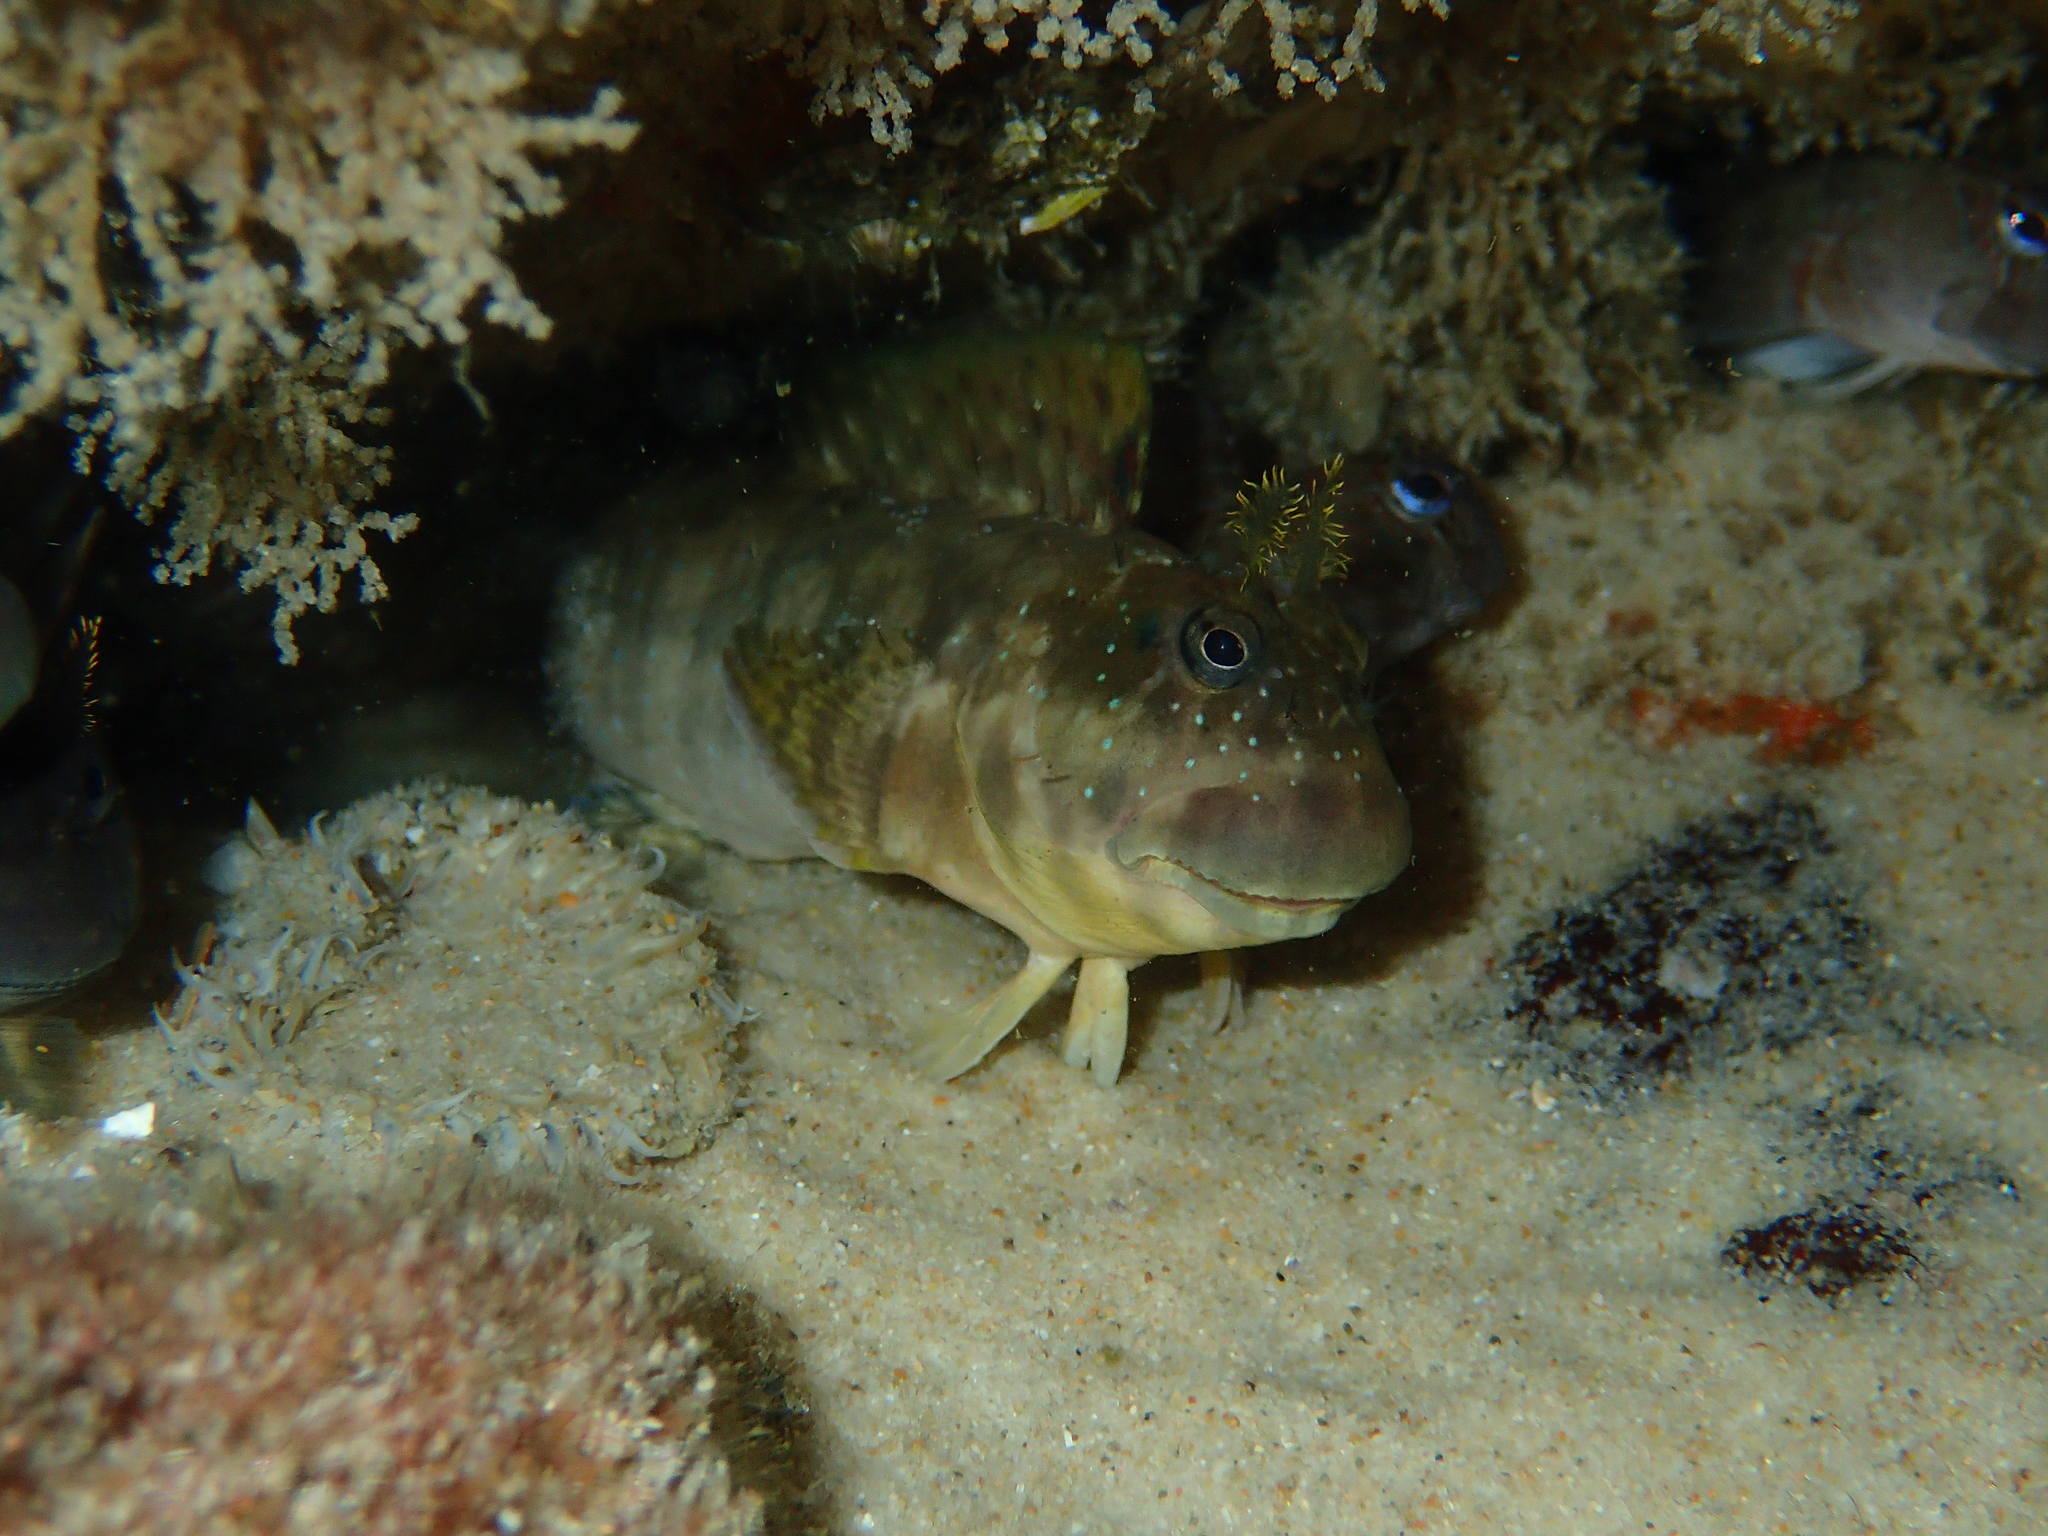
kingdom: Animalia
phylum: Chordata
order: Perciformes
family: Blenniidae
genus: Istiblennius
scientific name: Istiblennius meleagris
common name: Peacock rockskipper
